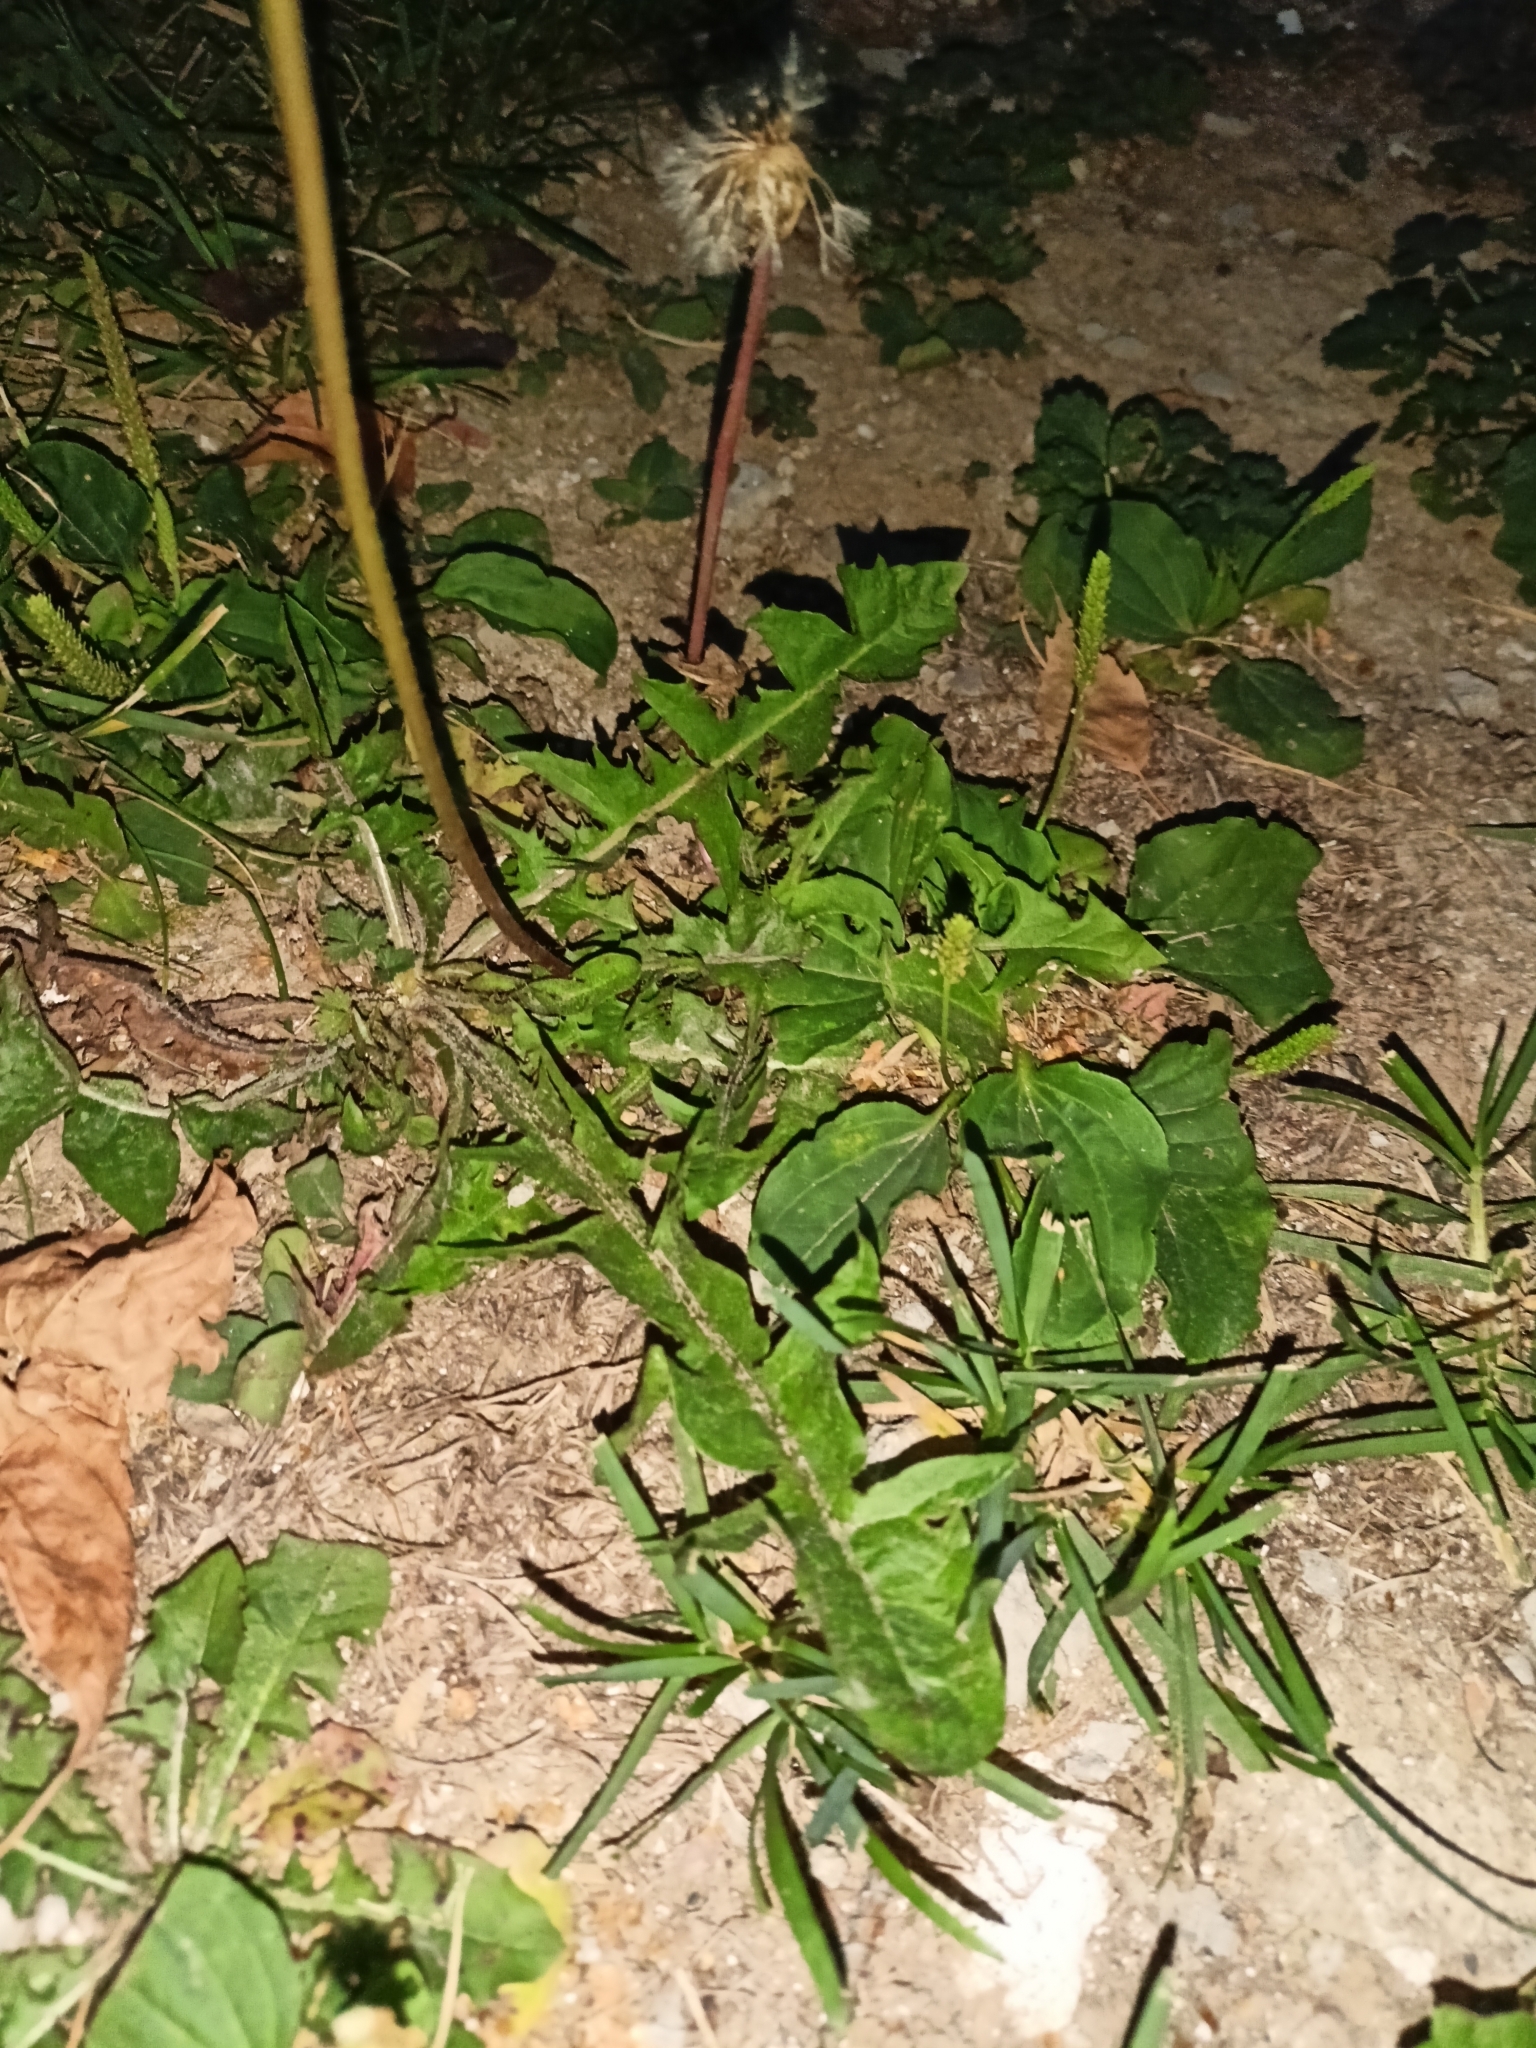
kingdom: Plantae
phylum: Tracheophyta
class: Magnoliopsida
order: Asterales
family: Asteraceae
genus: Taraxacum
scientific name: Taraxacum officinale
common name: Common dandelion
